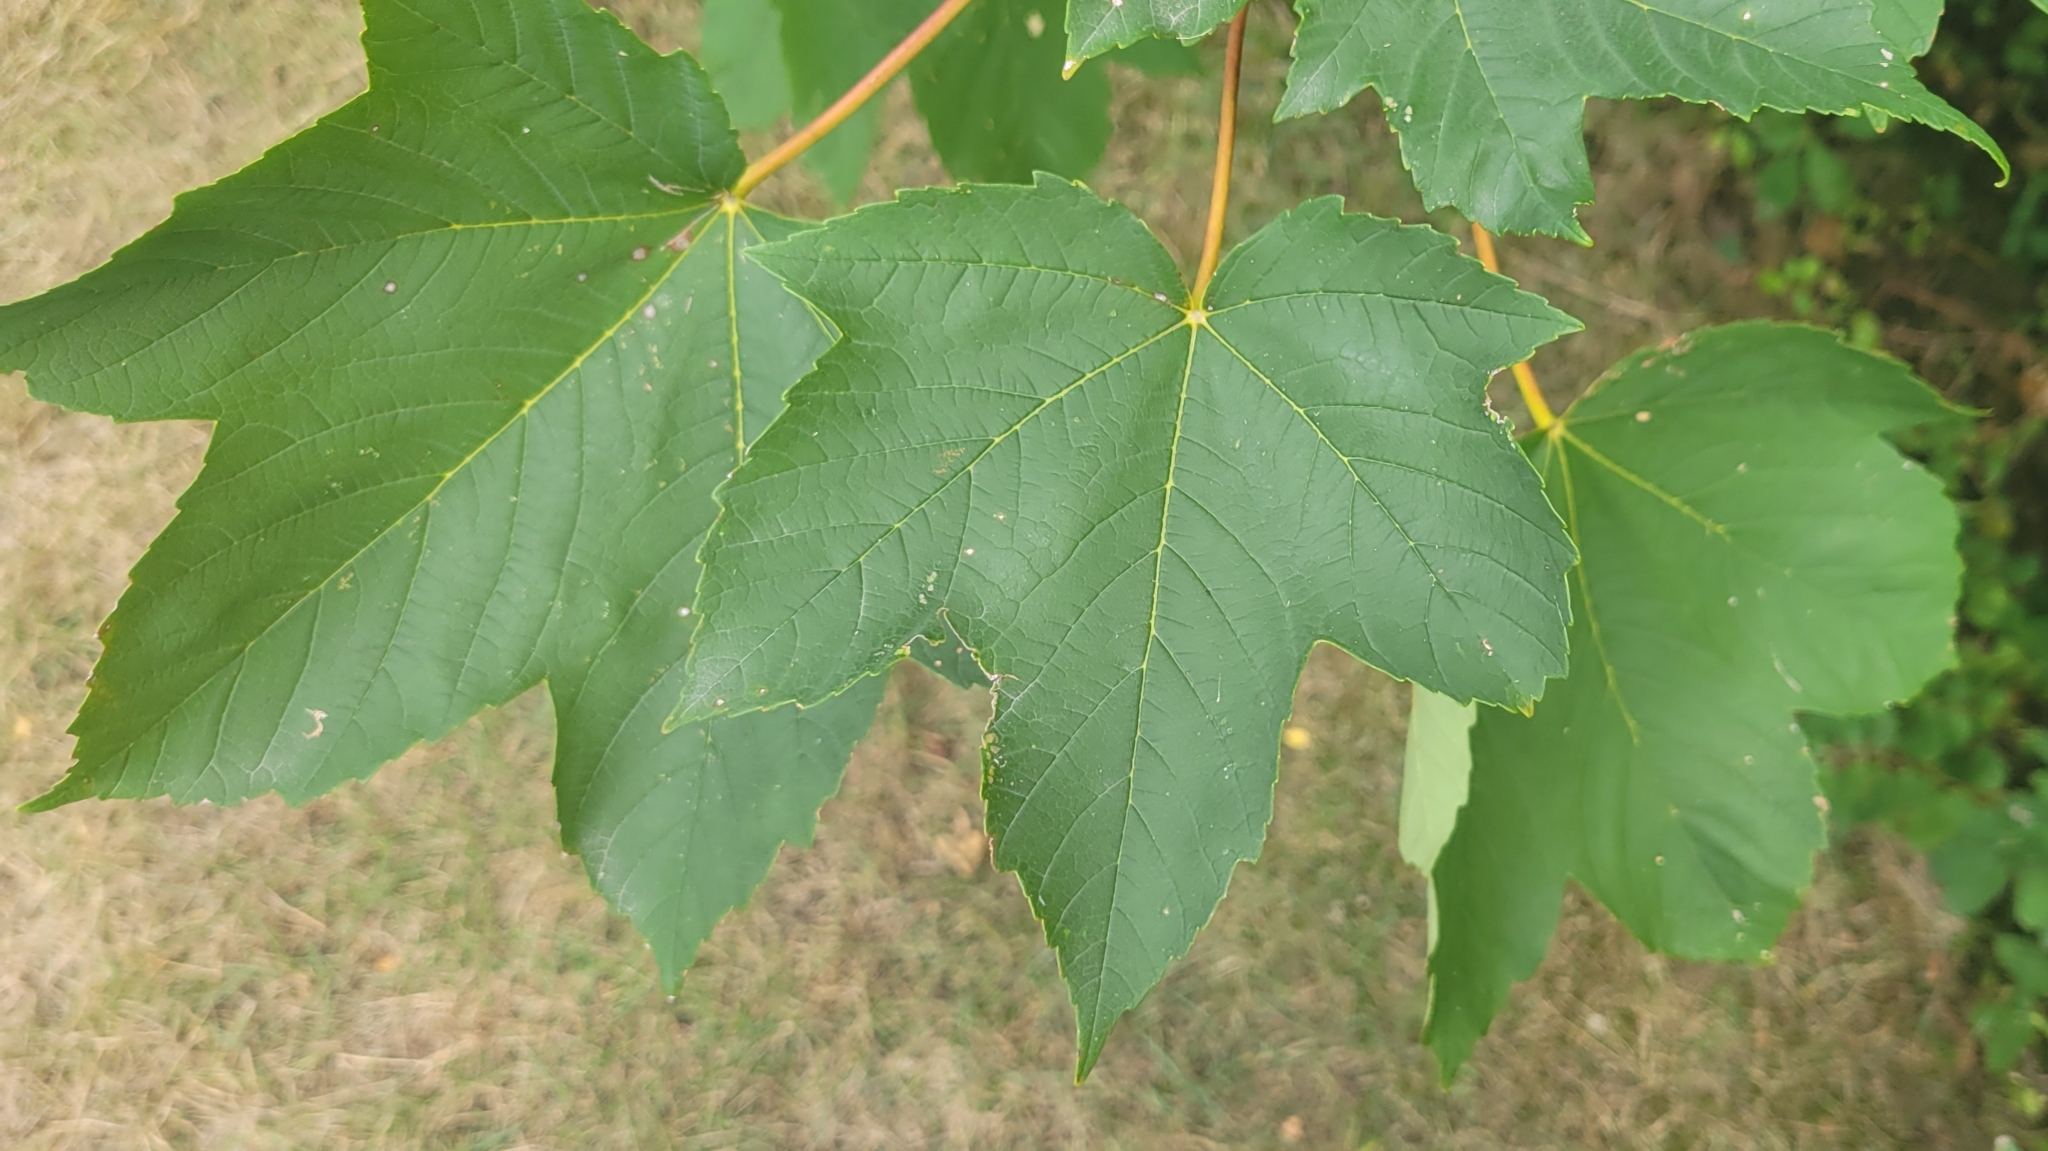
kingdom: Plantae
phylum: Tracheophyta
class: Magnoliopsida
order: Sapindales
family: Sapindaceae
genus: Acer
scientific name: Acer pseudoplatanus
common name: Sycamore
